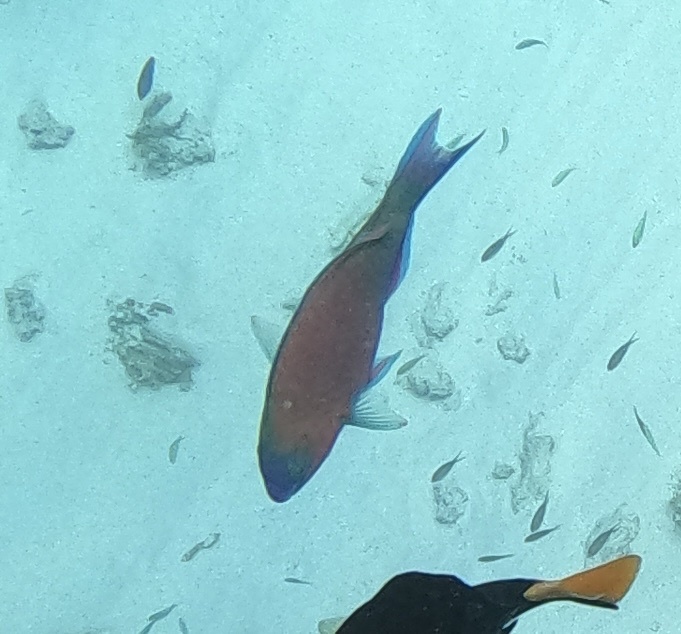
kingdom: Animalia
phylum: Chordata
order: Perciformes
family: Scaridae
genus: Scarus
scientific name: Scarus psittacus
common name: Palenose parrotfish
